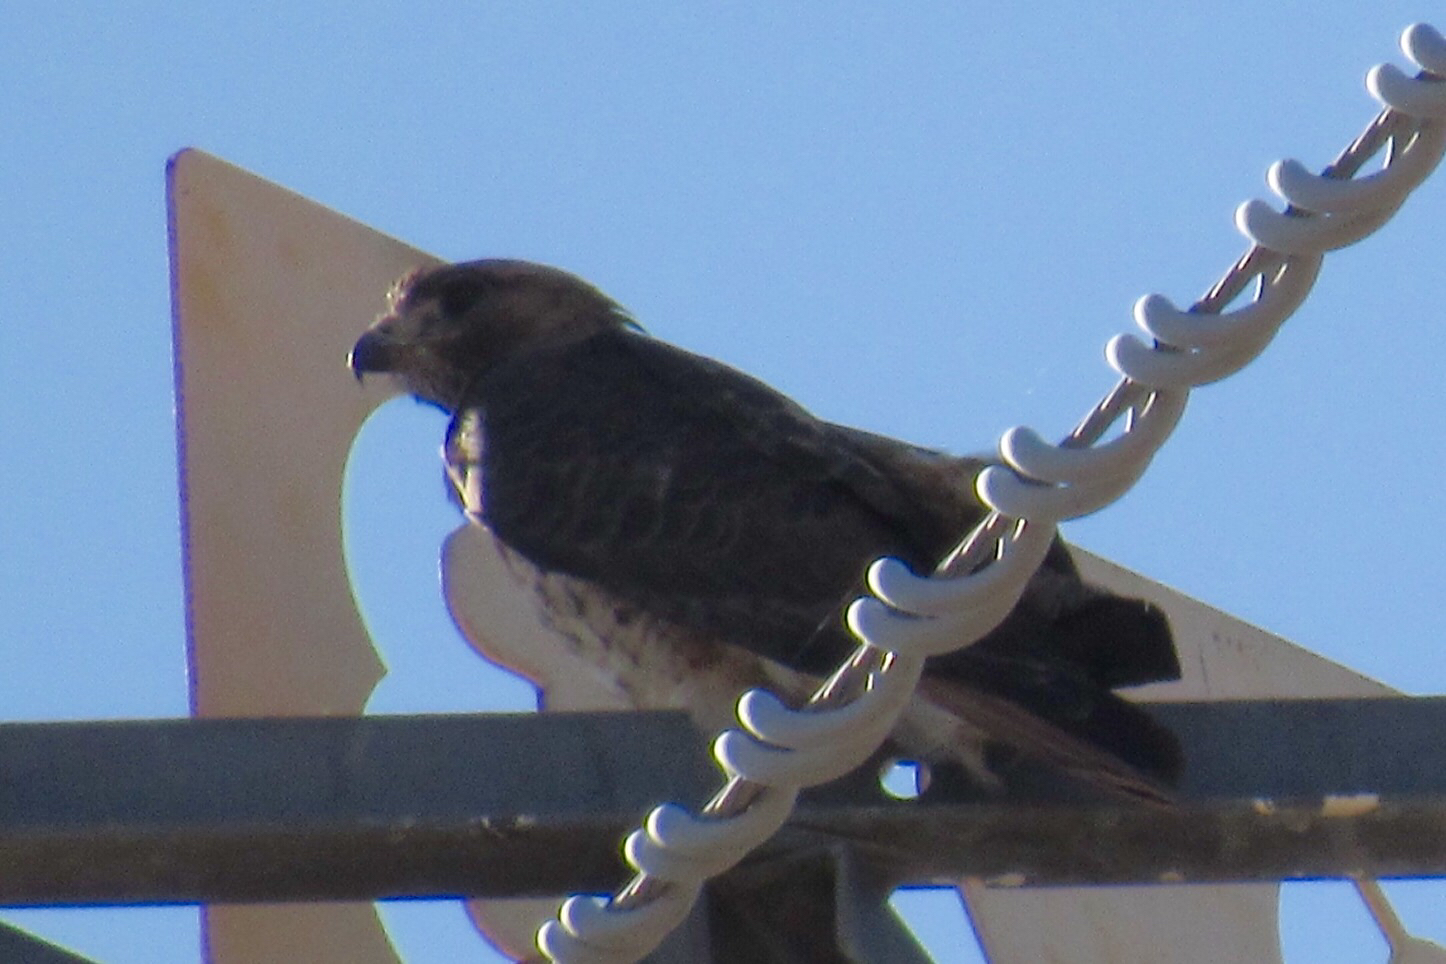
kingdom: Animalia
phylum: Chordata
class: Aves
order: Accipitriformes
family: Accipitridae
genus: Buteo
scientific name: Buteo jamaicensis
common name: Red-tailed hawk
